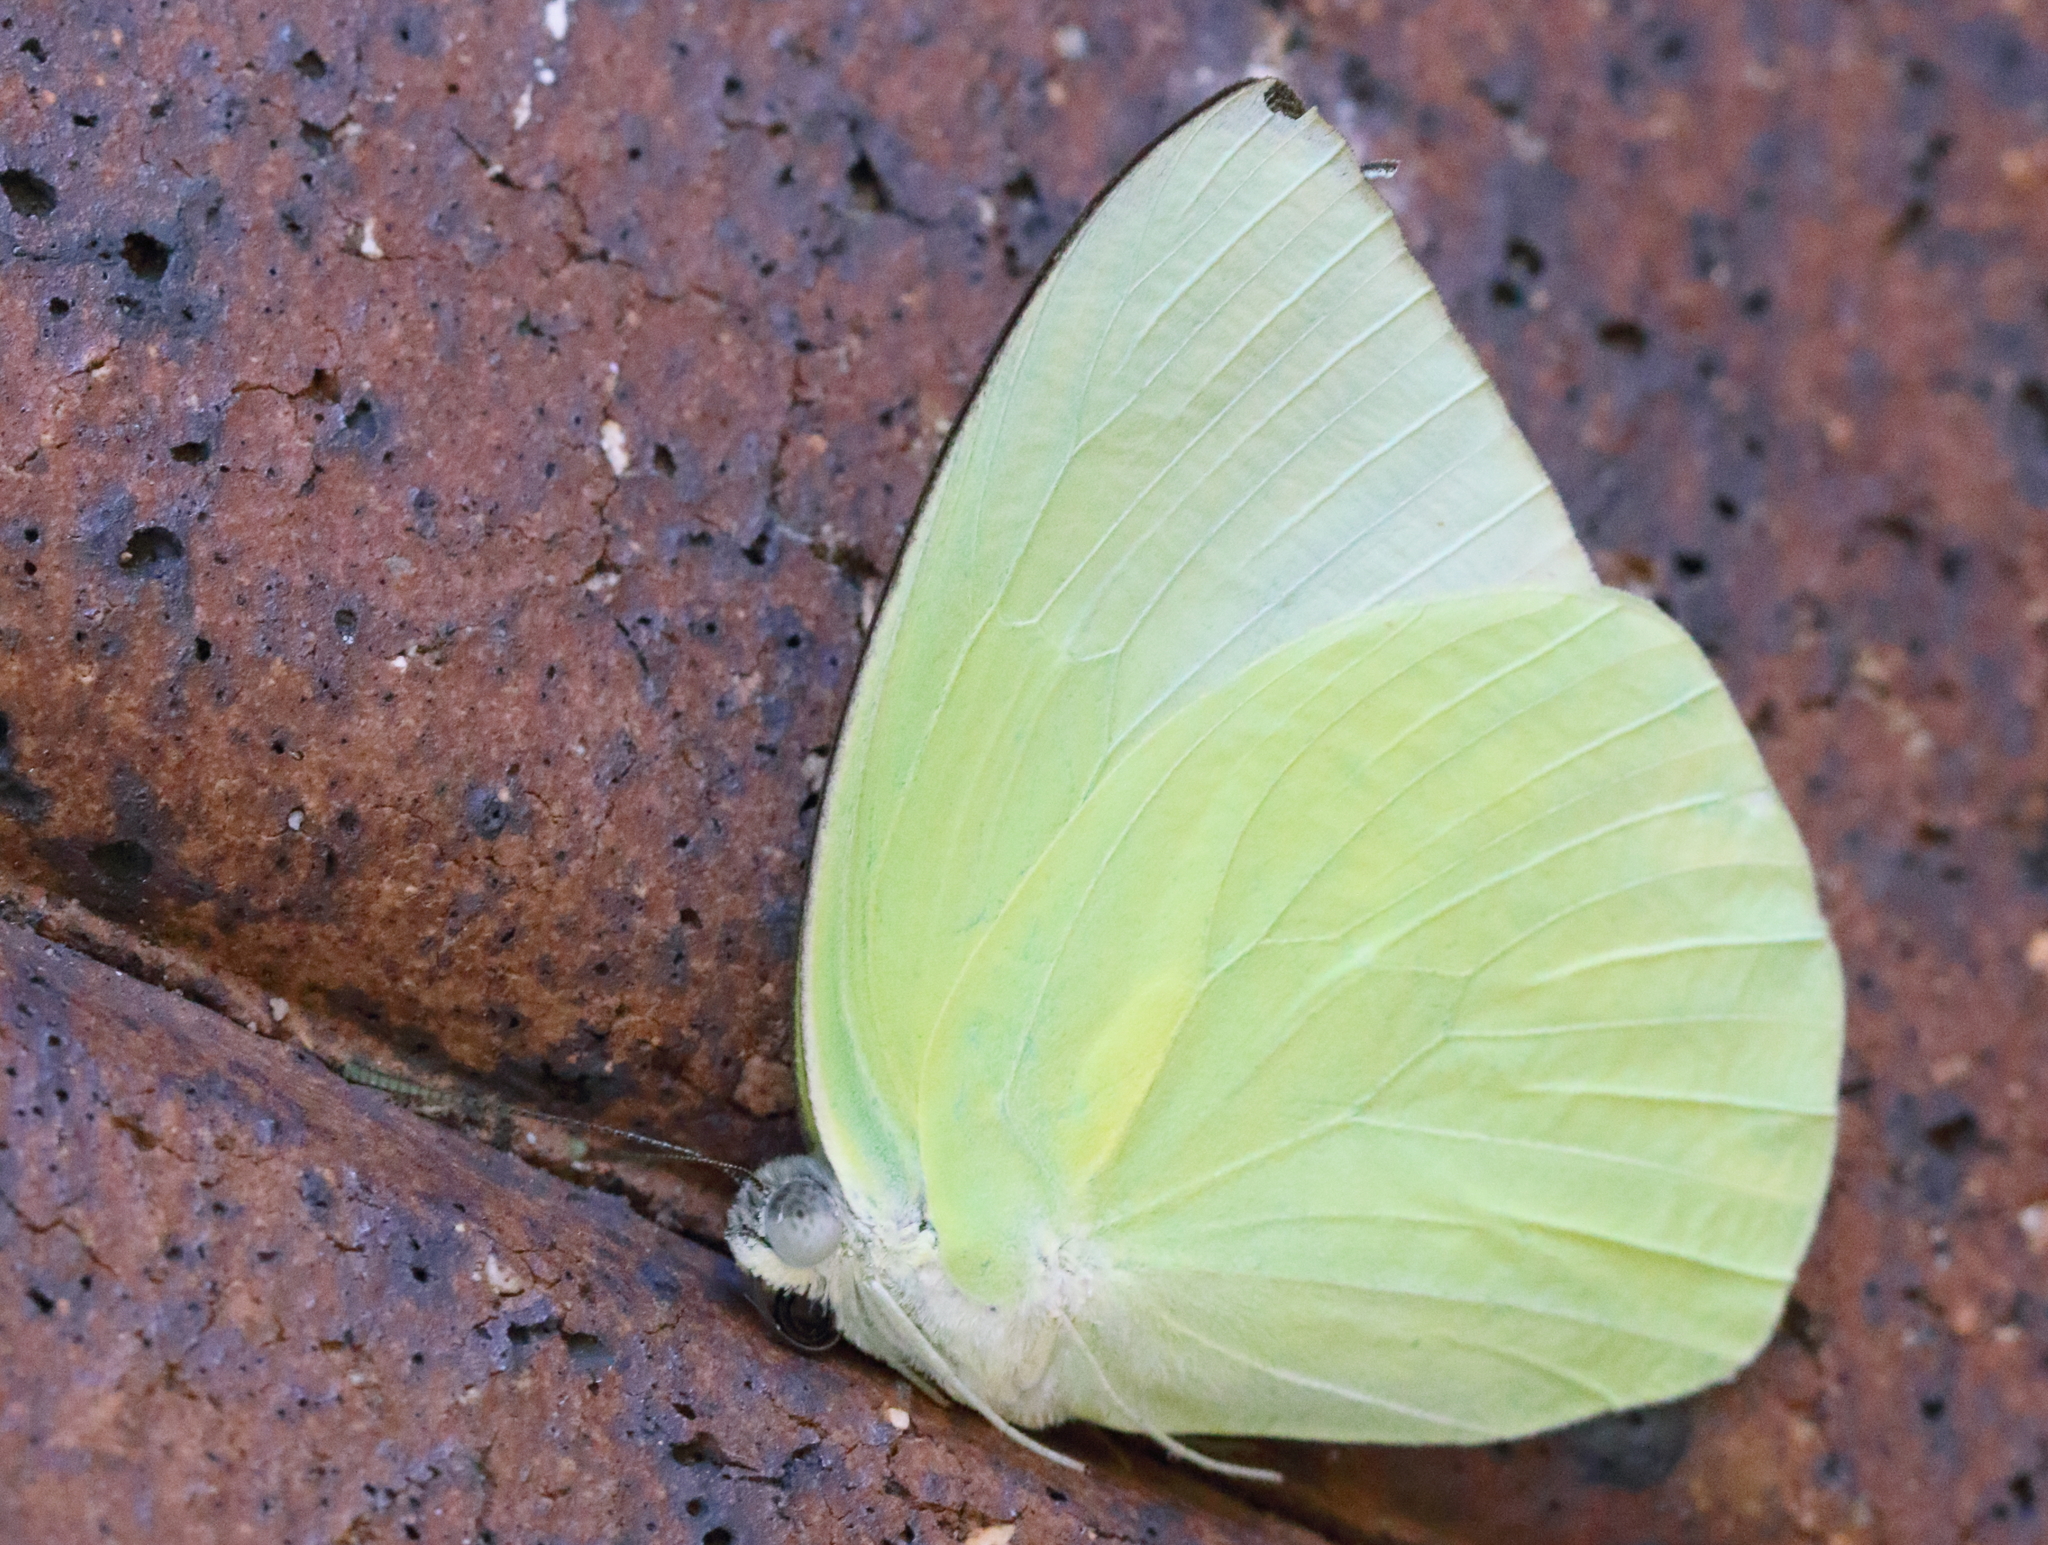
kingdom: Animalia
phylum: Arthropoda
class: Insecta
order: Lepidoptera
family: Pieridae
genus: Catopsilia
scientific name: Catopsilia pomona
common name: Common emigrant
